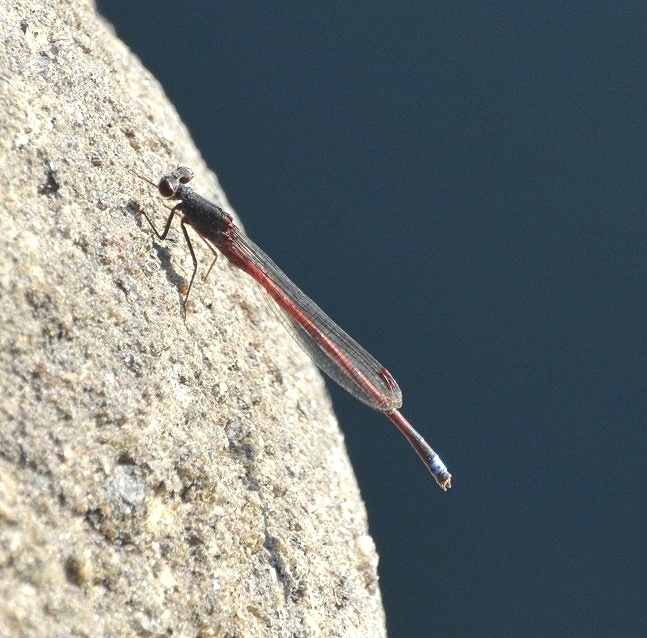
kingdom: Animalia
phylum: Arthropoda
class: Insecta
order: Odonata
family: Coenagrionidae
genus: Oxyagrion
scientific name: Oxyagrion rubidum
